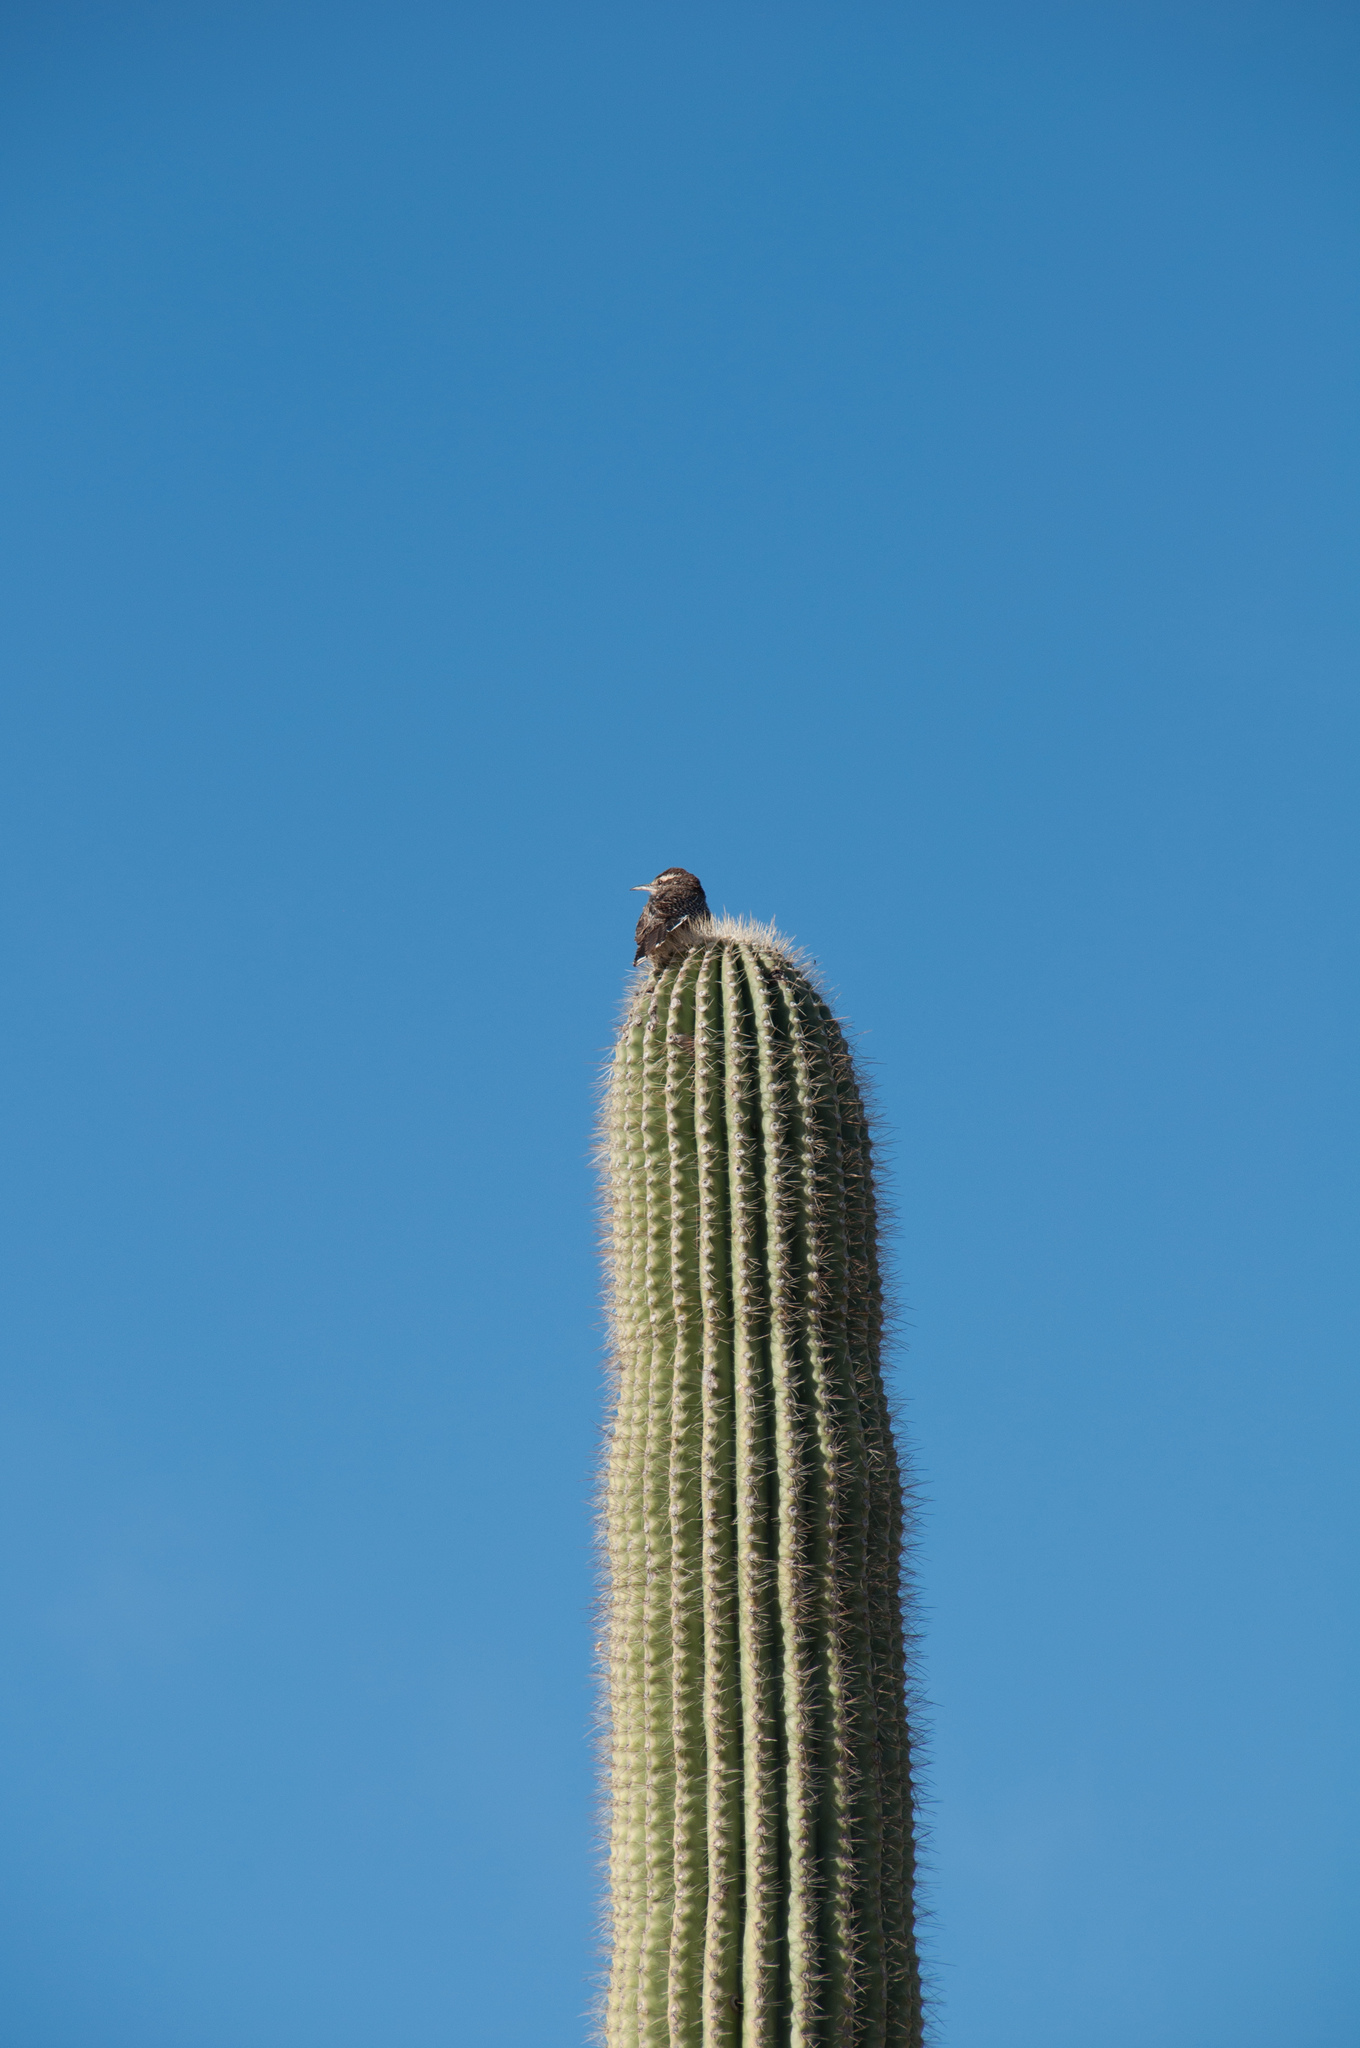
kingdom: Animalia
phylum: Chordata
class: Aves
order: Passeriformes
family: Troglodytidae
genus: Campylorhynchus
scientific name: Campylorhynchus brunneicapillus
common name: Cactus wren
